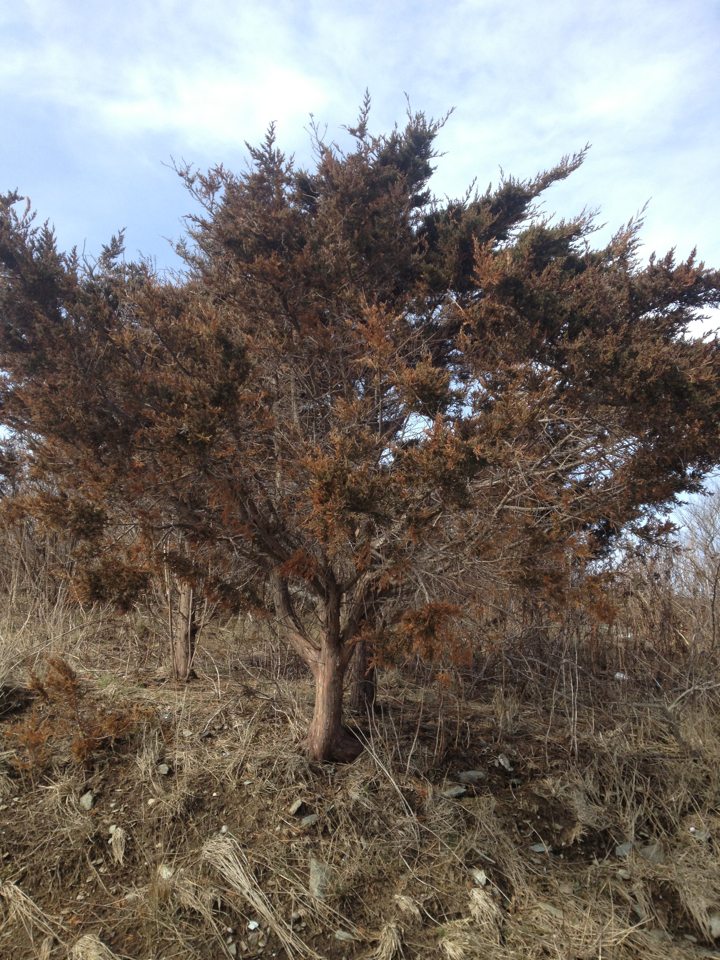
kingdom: Plantae
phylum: Tracheophyta
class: Pinopsida
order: Pinales
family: Cupressaceae
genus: Juniperus
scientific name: Juniperus virginiana
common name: Red juniper
